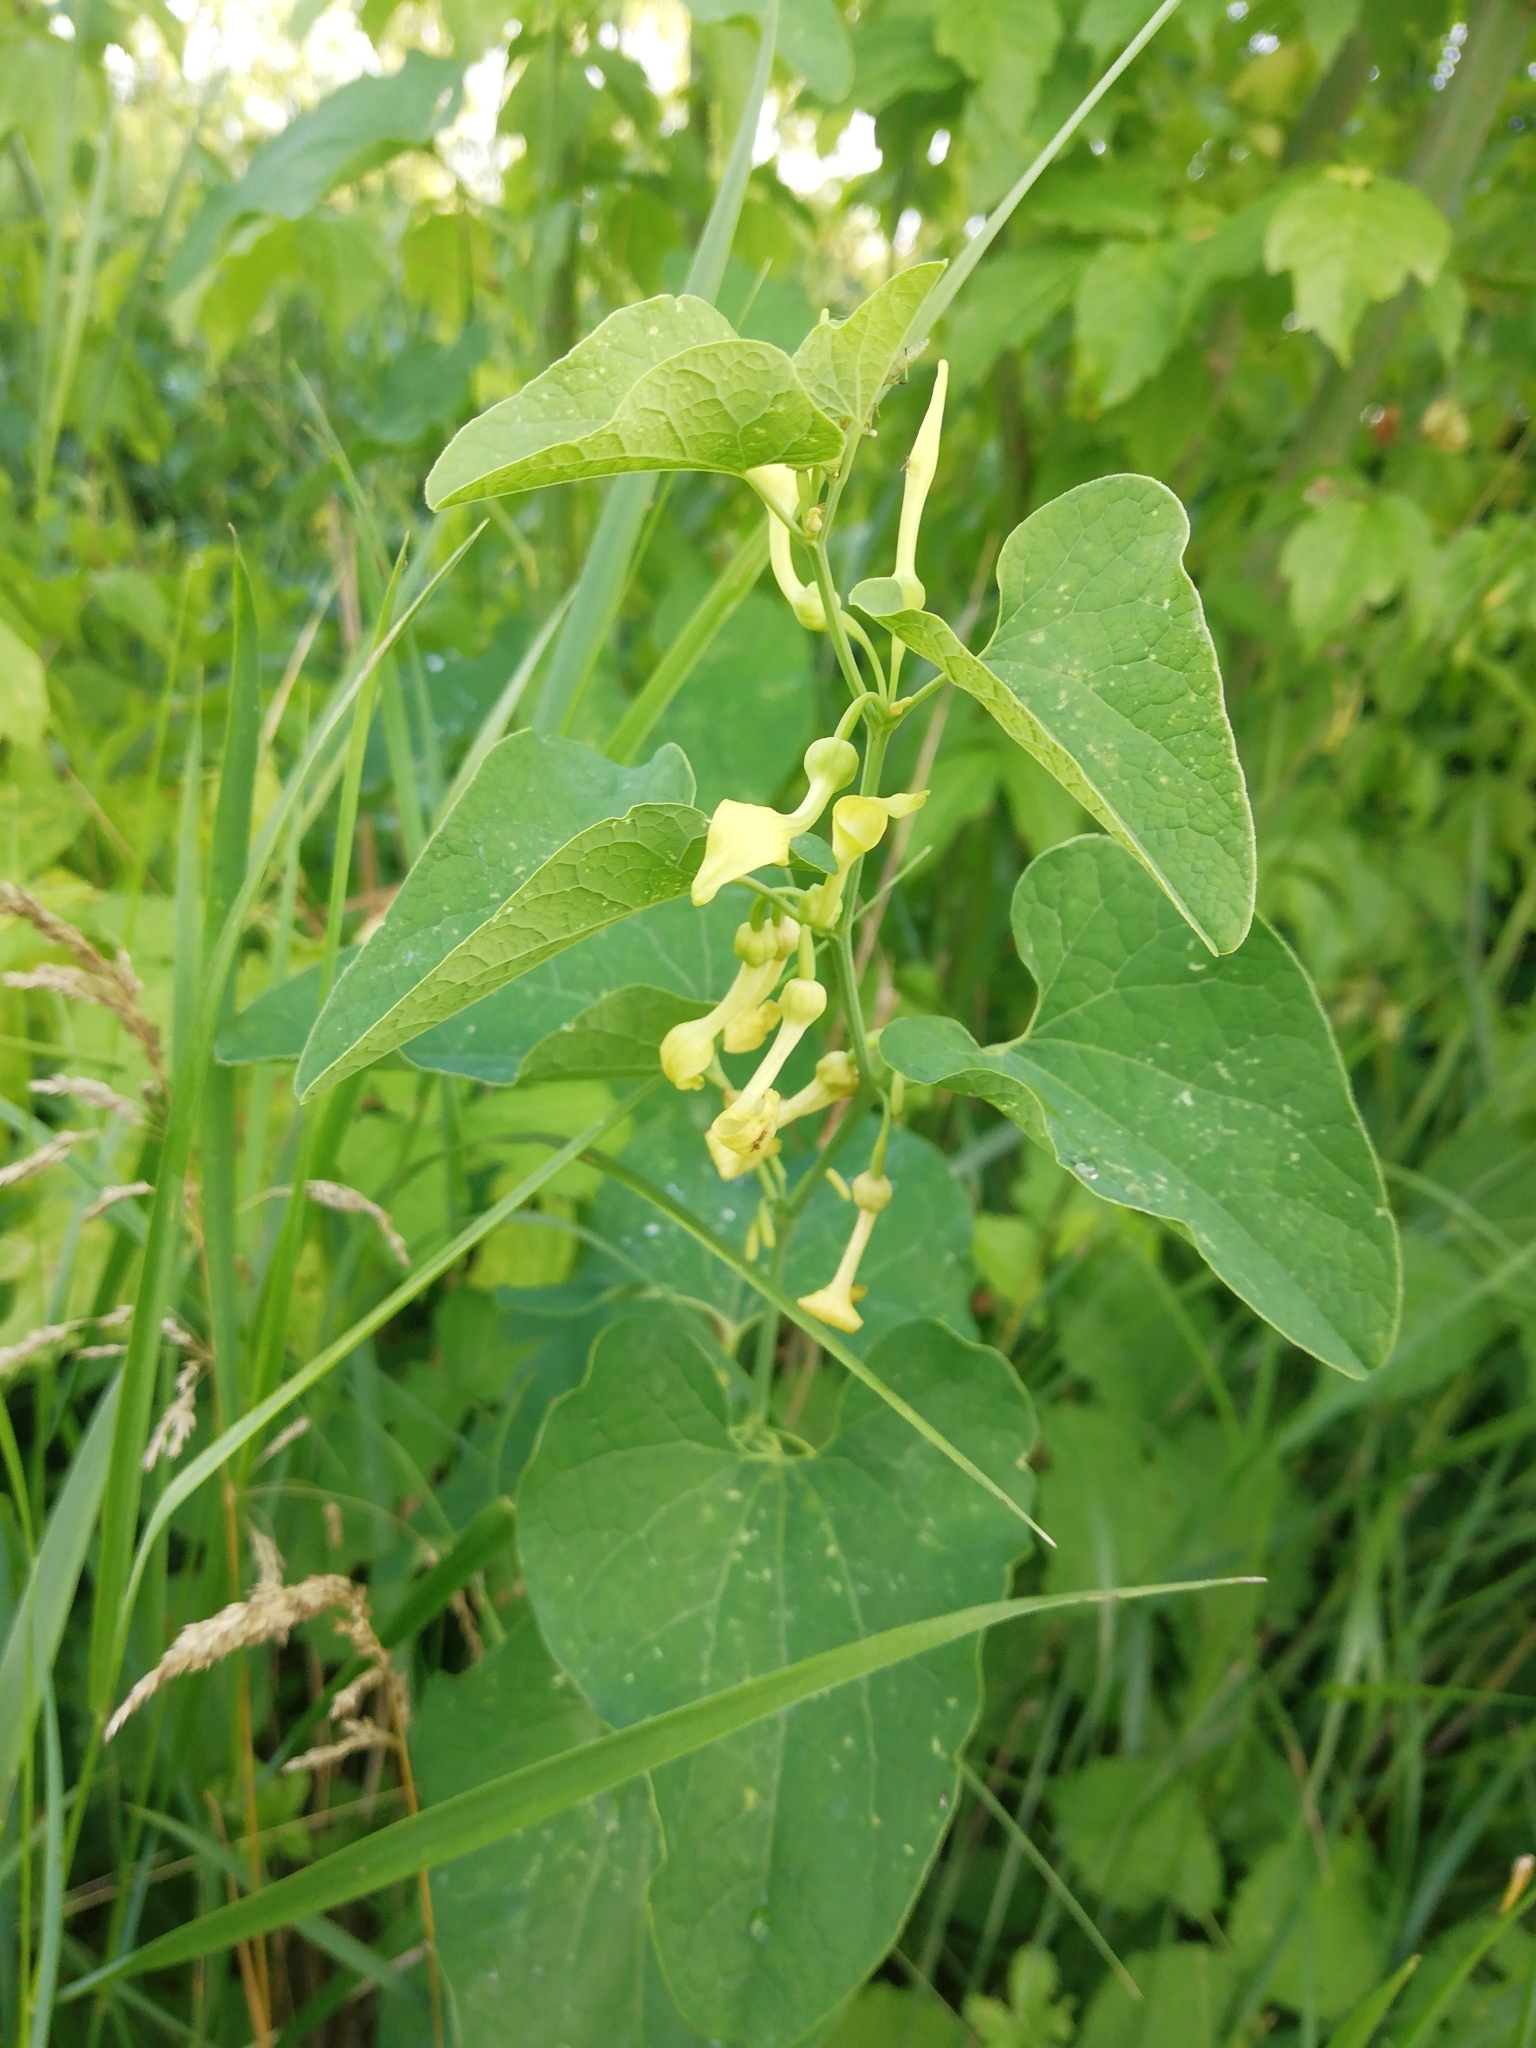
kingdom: Plantae
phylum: Tracheophyta
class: Magnoliopsida
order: Piperales
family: Aristolochiaceae
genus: Aristolochia
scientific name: Aristolochia clematitis
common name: Birthwort
